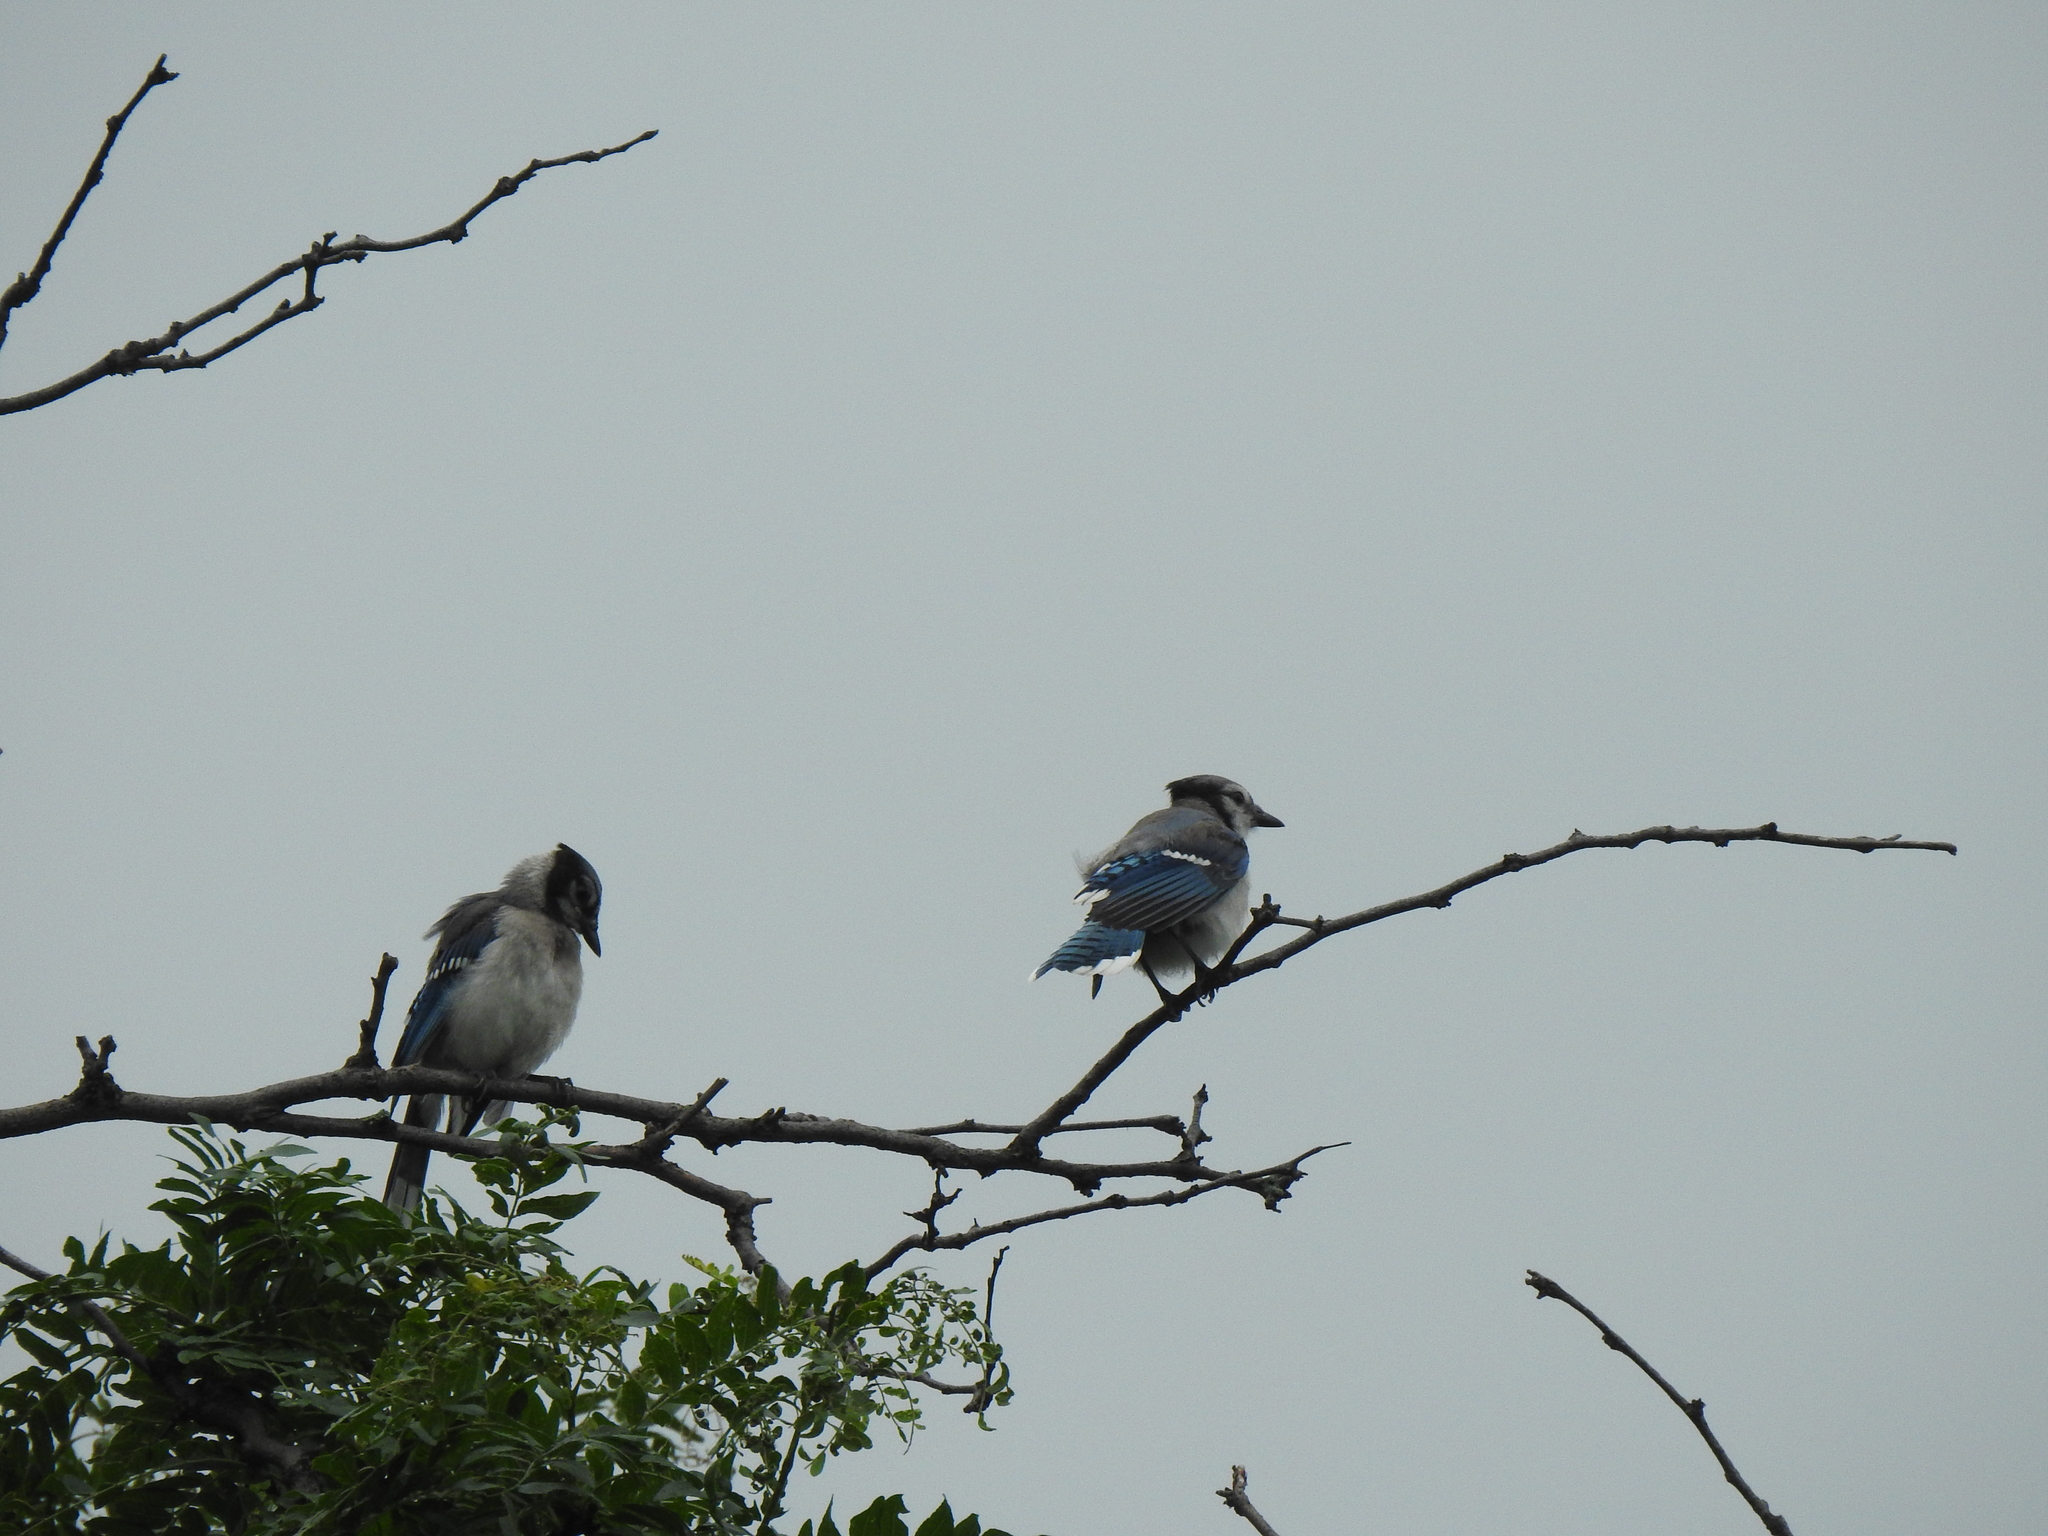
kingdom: Animalia
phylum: Chordata
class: Aves
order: Passeriformes
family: Corvidae
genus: Cyanocitta
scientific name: Cyanocitta cristata
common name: Blue jay
